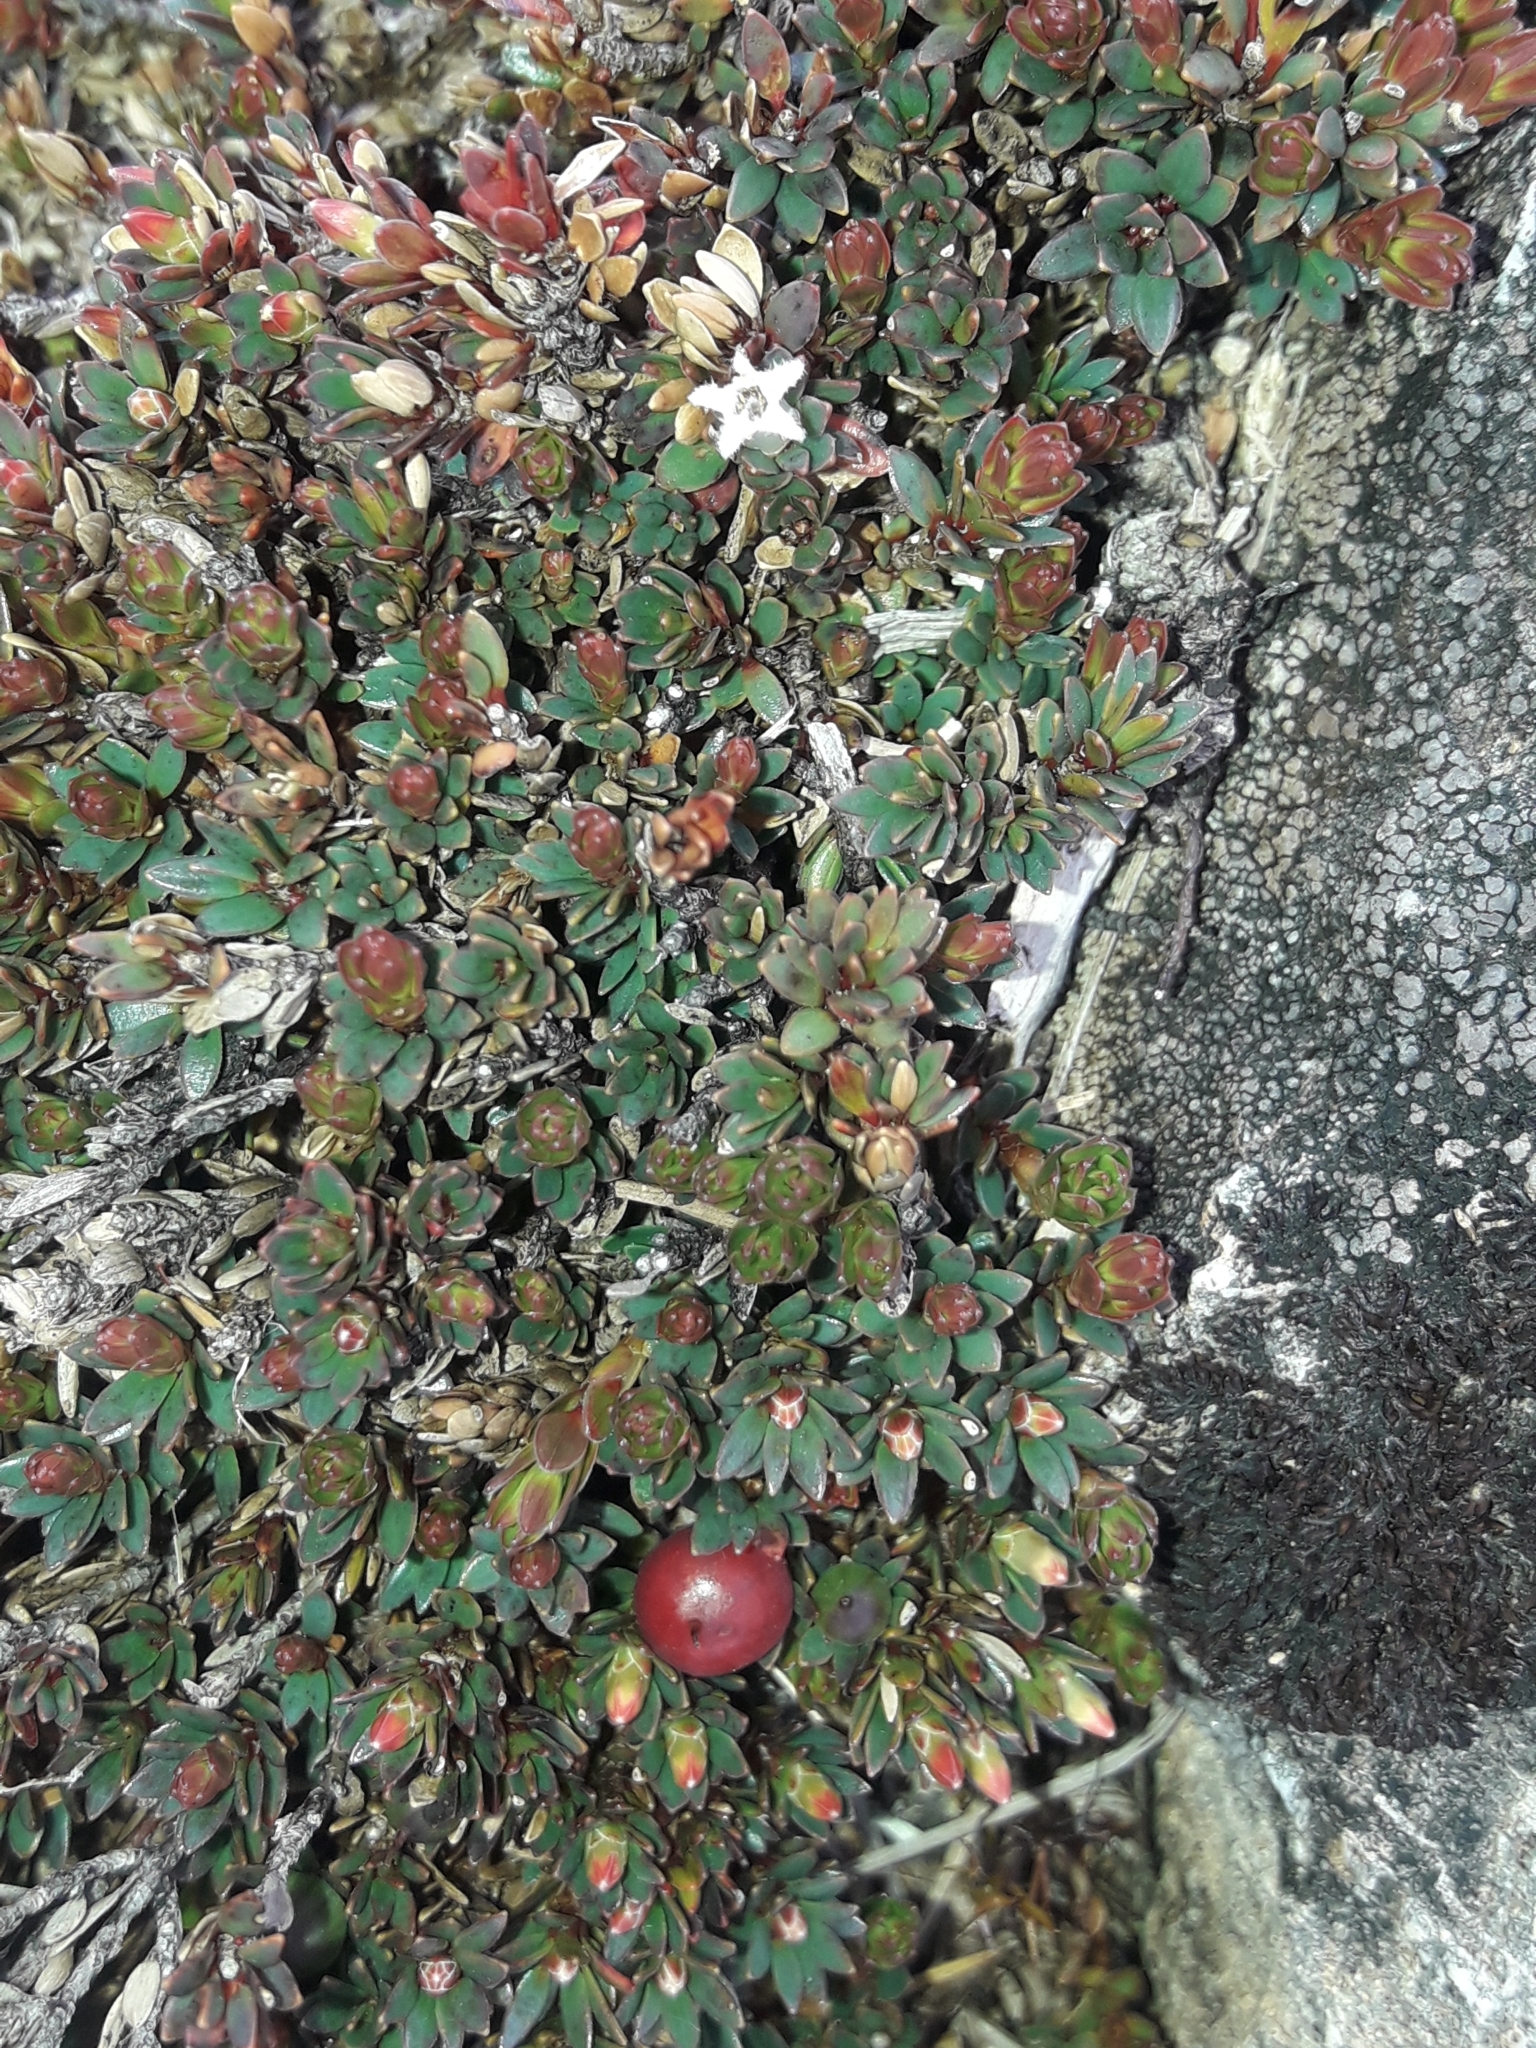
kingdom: Plantae
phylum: Tracheophyta
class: Magnoliopsida
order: Ericales
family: Ericaceae
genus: Pentachondra
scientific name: Pentachondra pumila
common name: Carpet-heath
